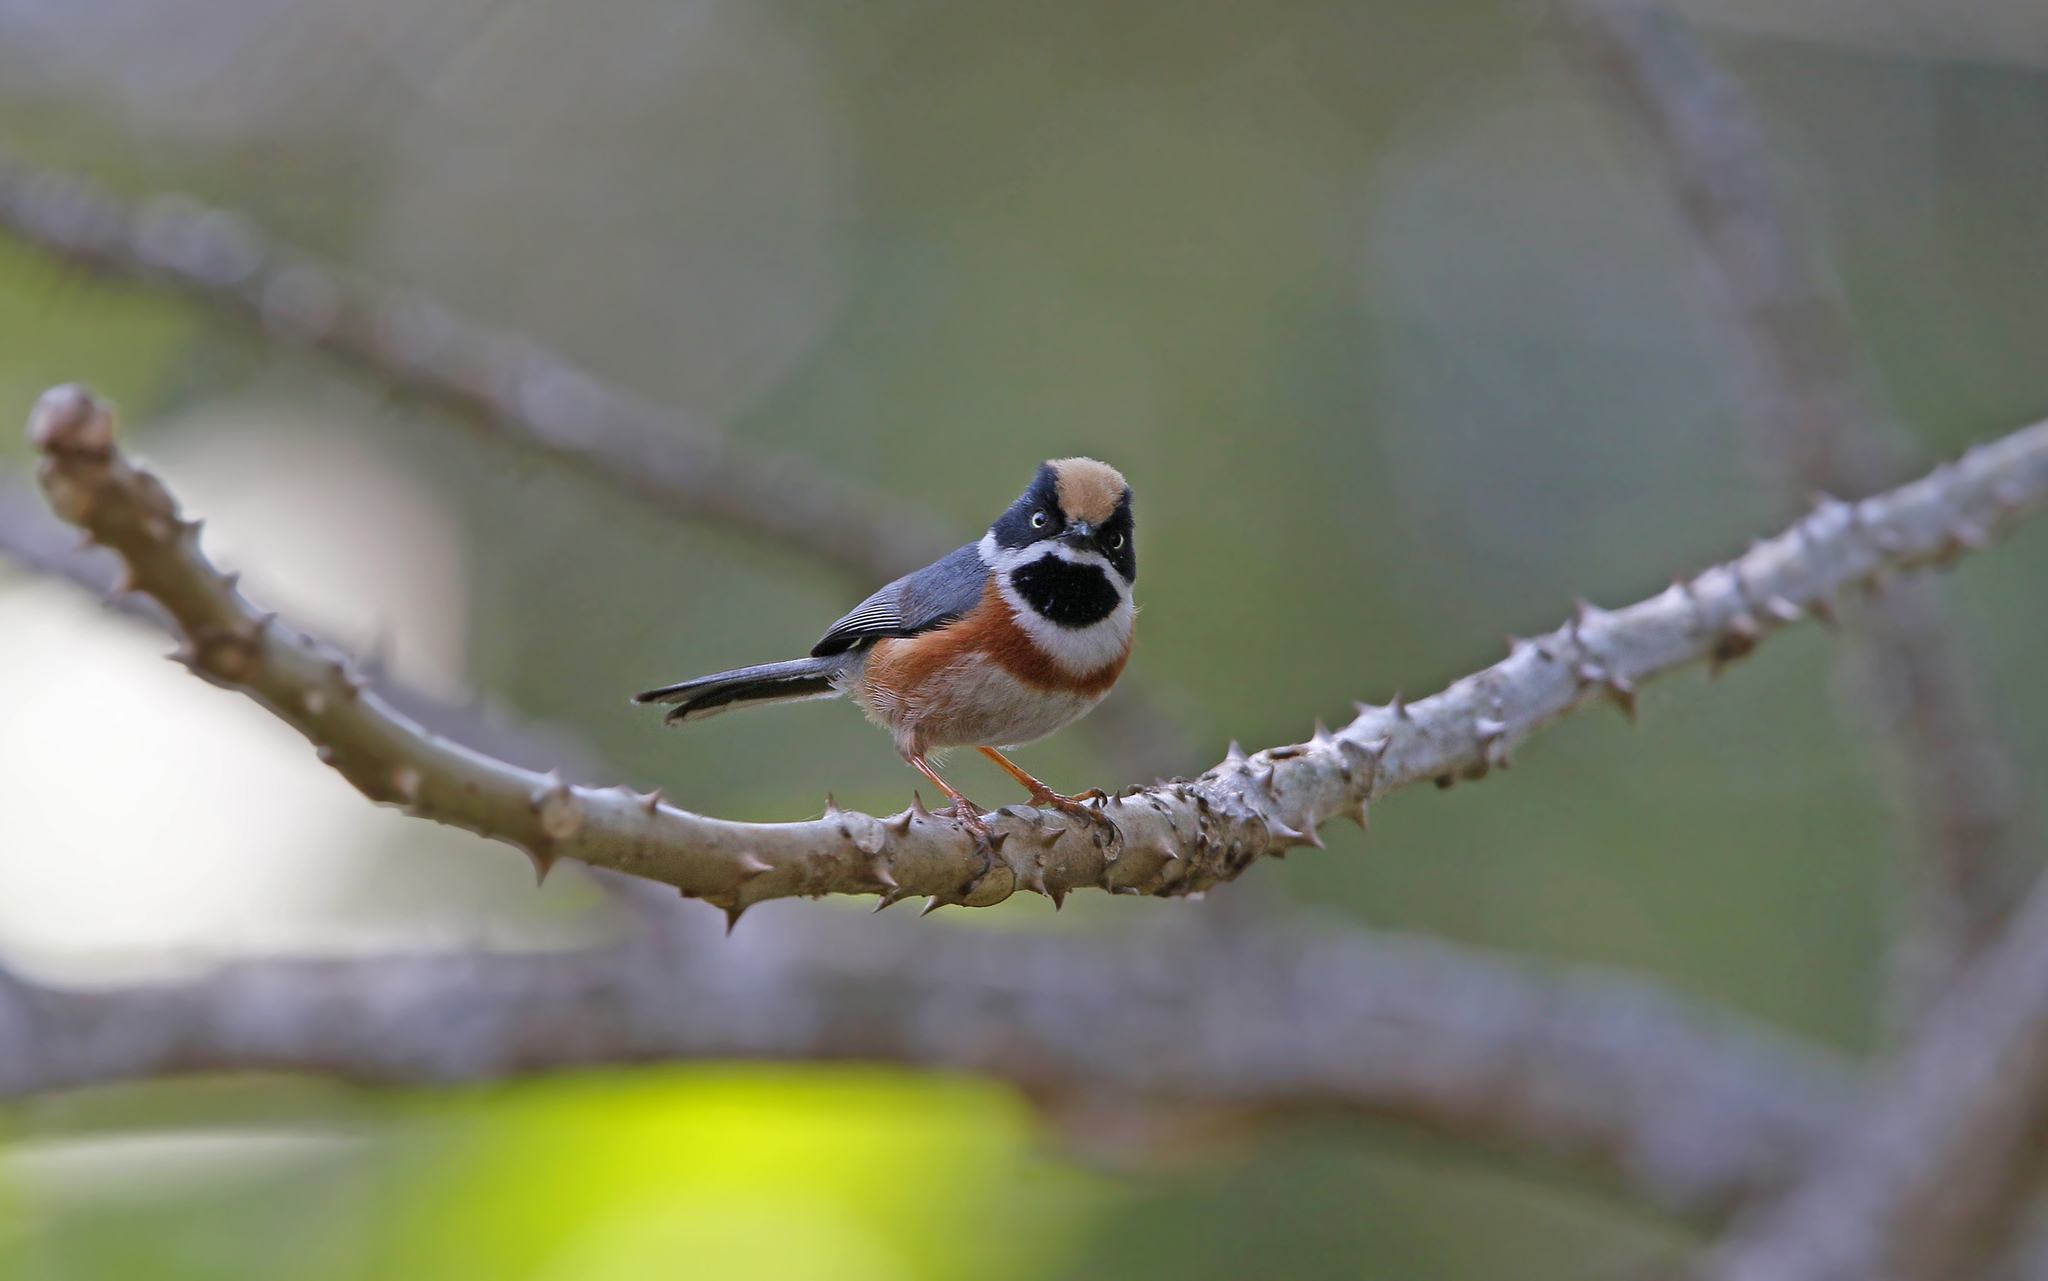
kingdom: Animalia
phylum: Chordata
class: Aves
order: Passeriformes
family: Aegithalidae
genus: Aegithalos
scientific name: Aegithalos concinnus
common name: Black-throated bushtit
